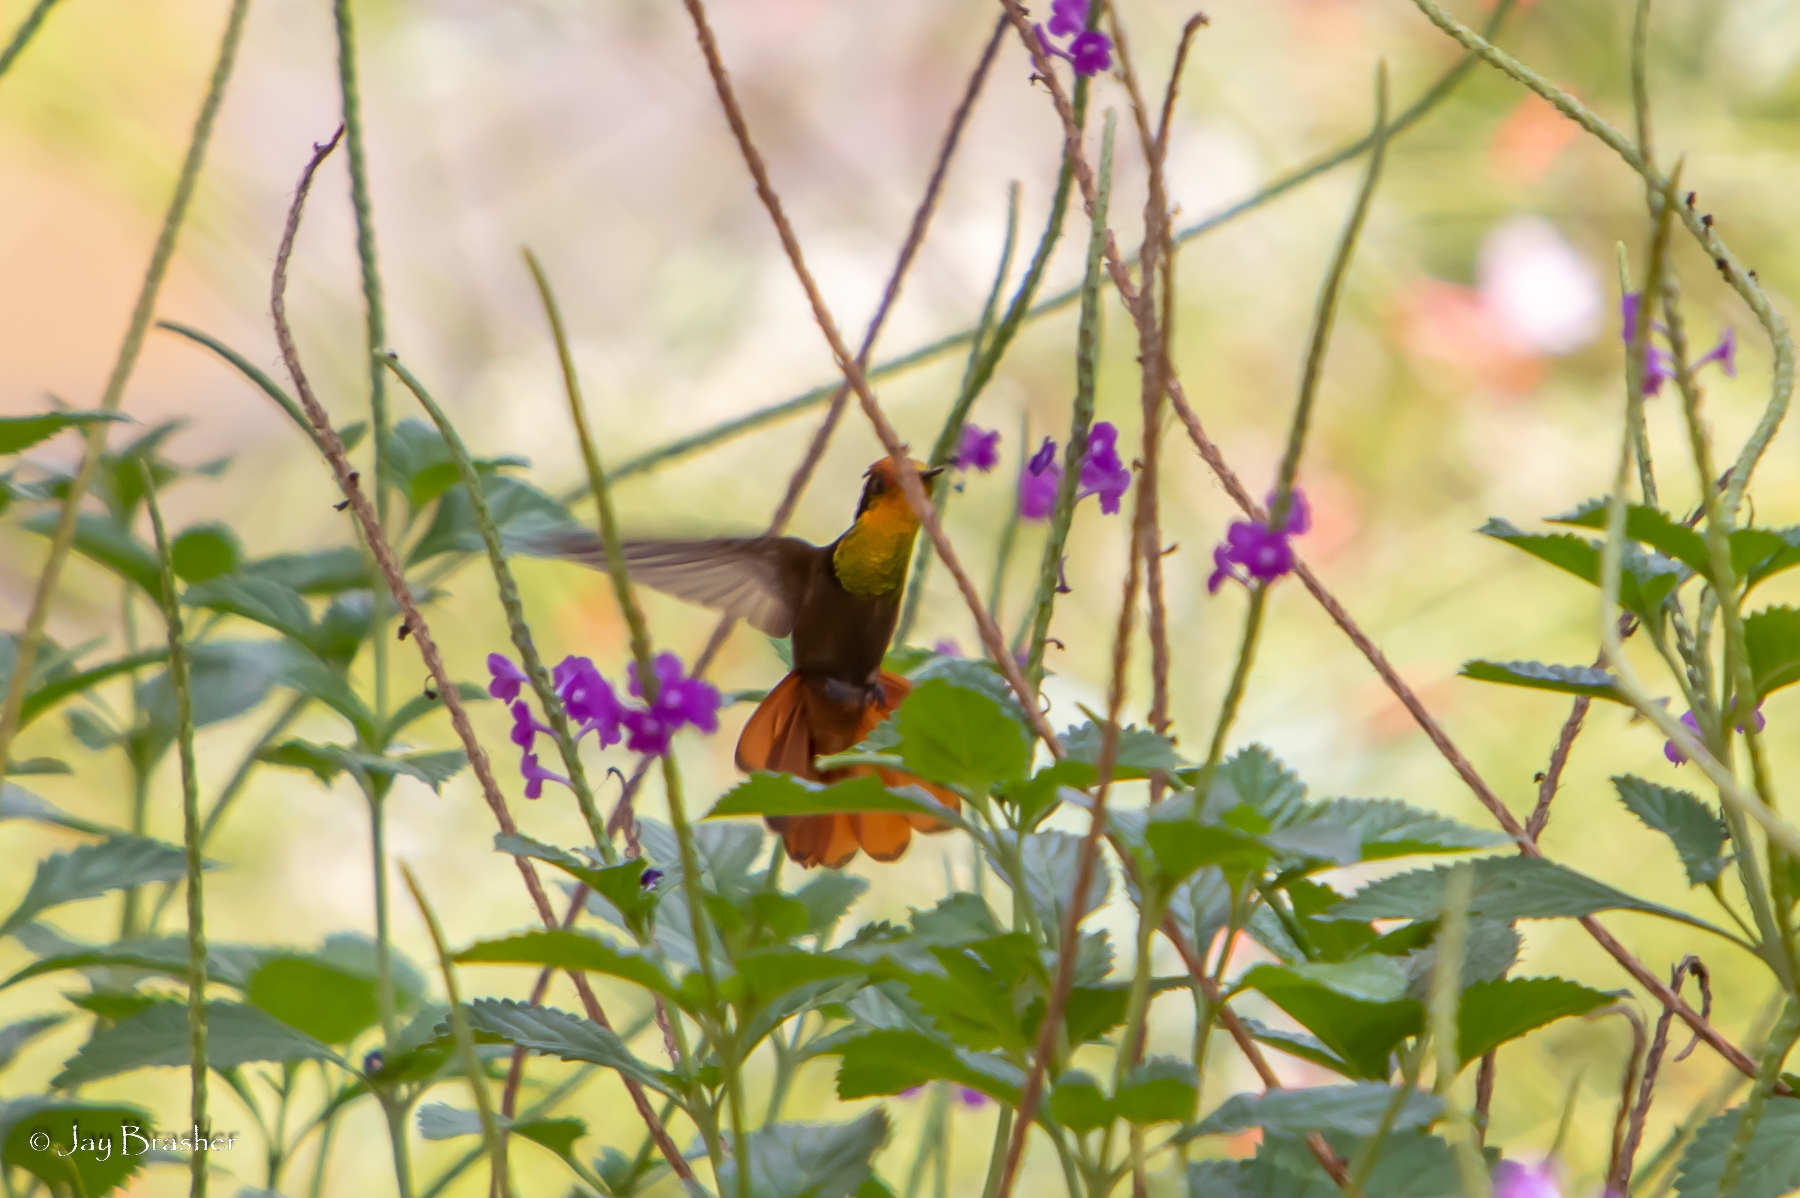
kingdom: Animalia
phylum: Chordata
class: Aves
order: Apodiformes
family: Trochilidae
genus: Chrysolampis
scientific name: Chrysolampis mosquitus
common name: Ruby-topaz hummingbird
